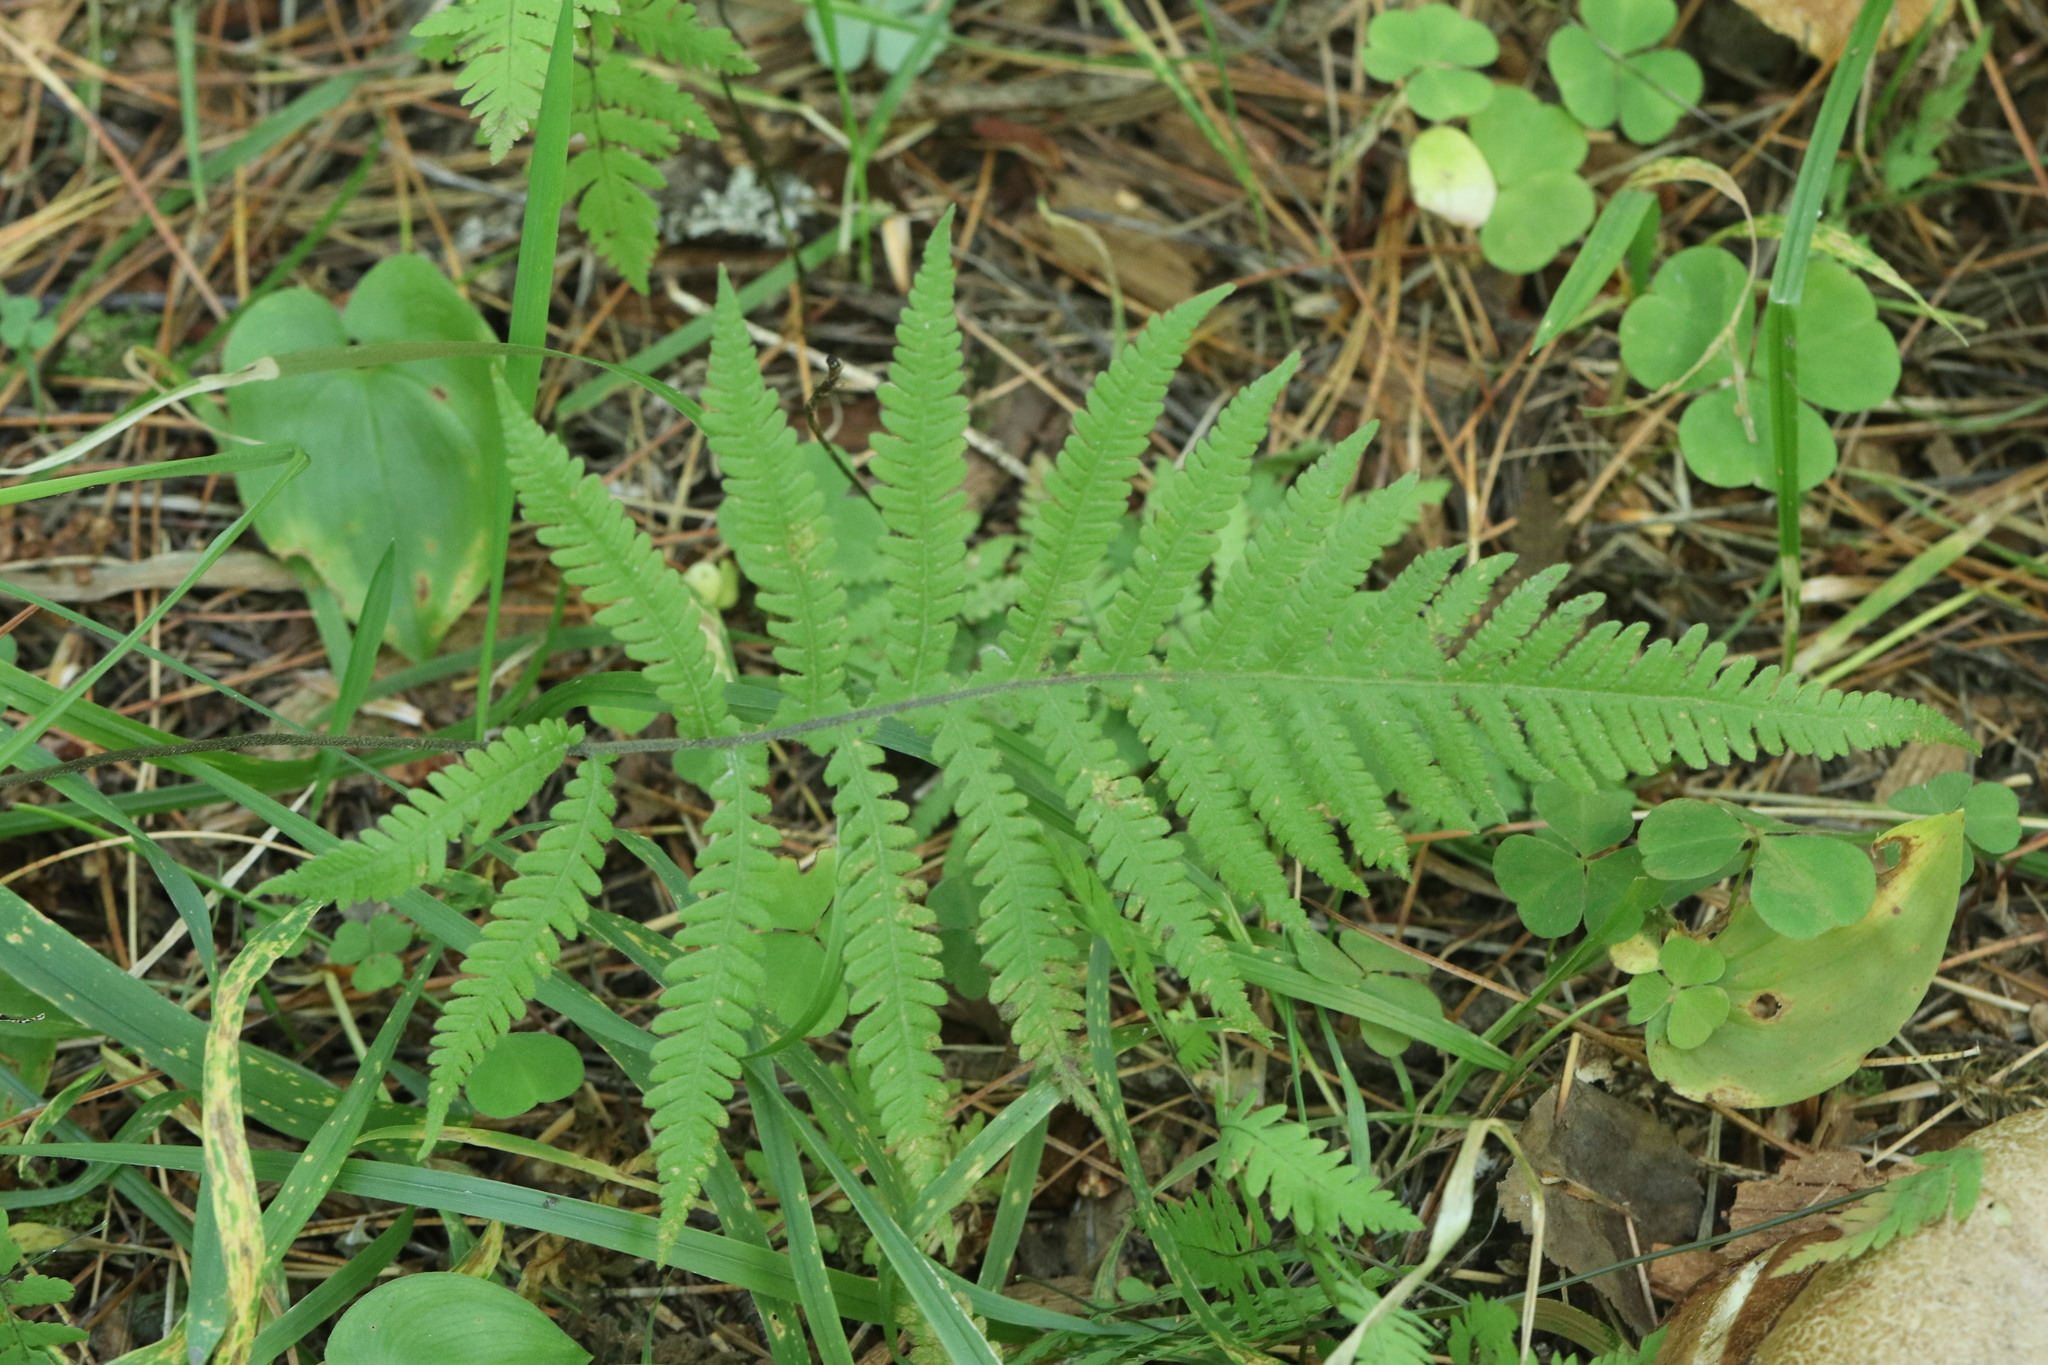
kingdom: Plantae
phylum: Tracheophyta
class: Polypodiopsida
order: Polypodiales
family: Thelypteridaceae
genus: Phegopteris
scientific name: Phegopteris connectilis
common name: Beech fern
